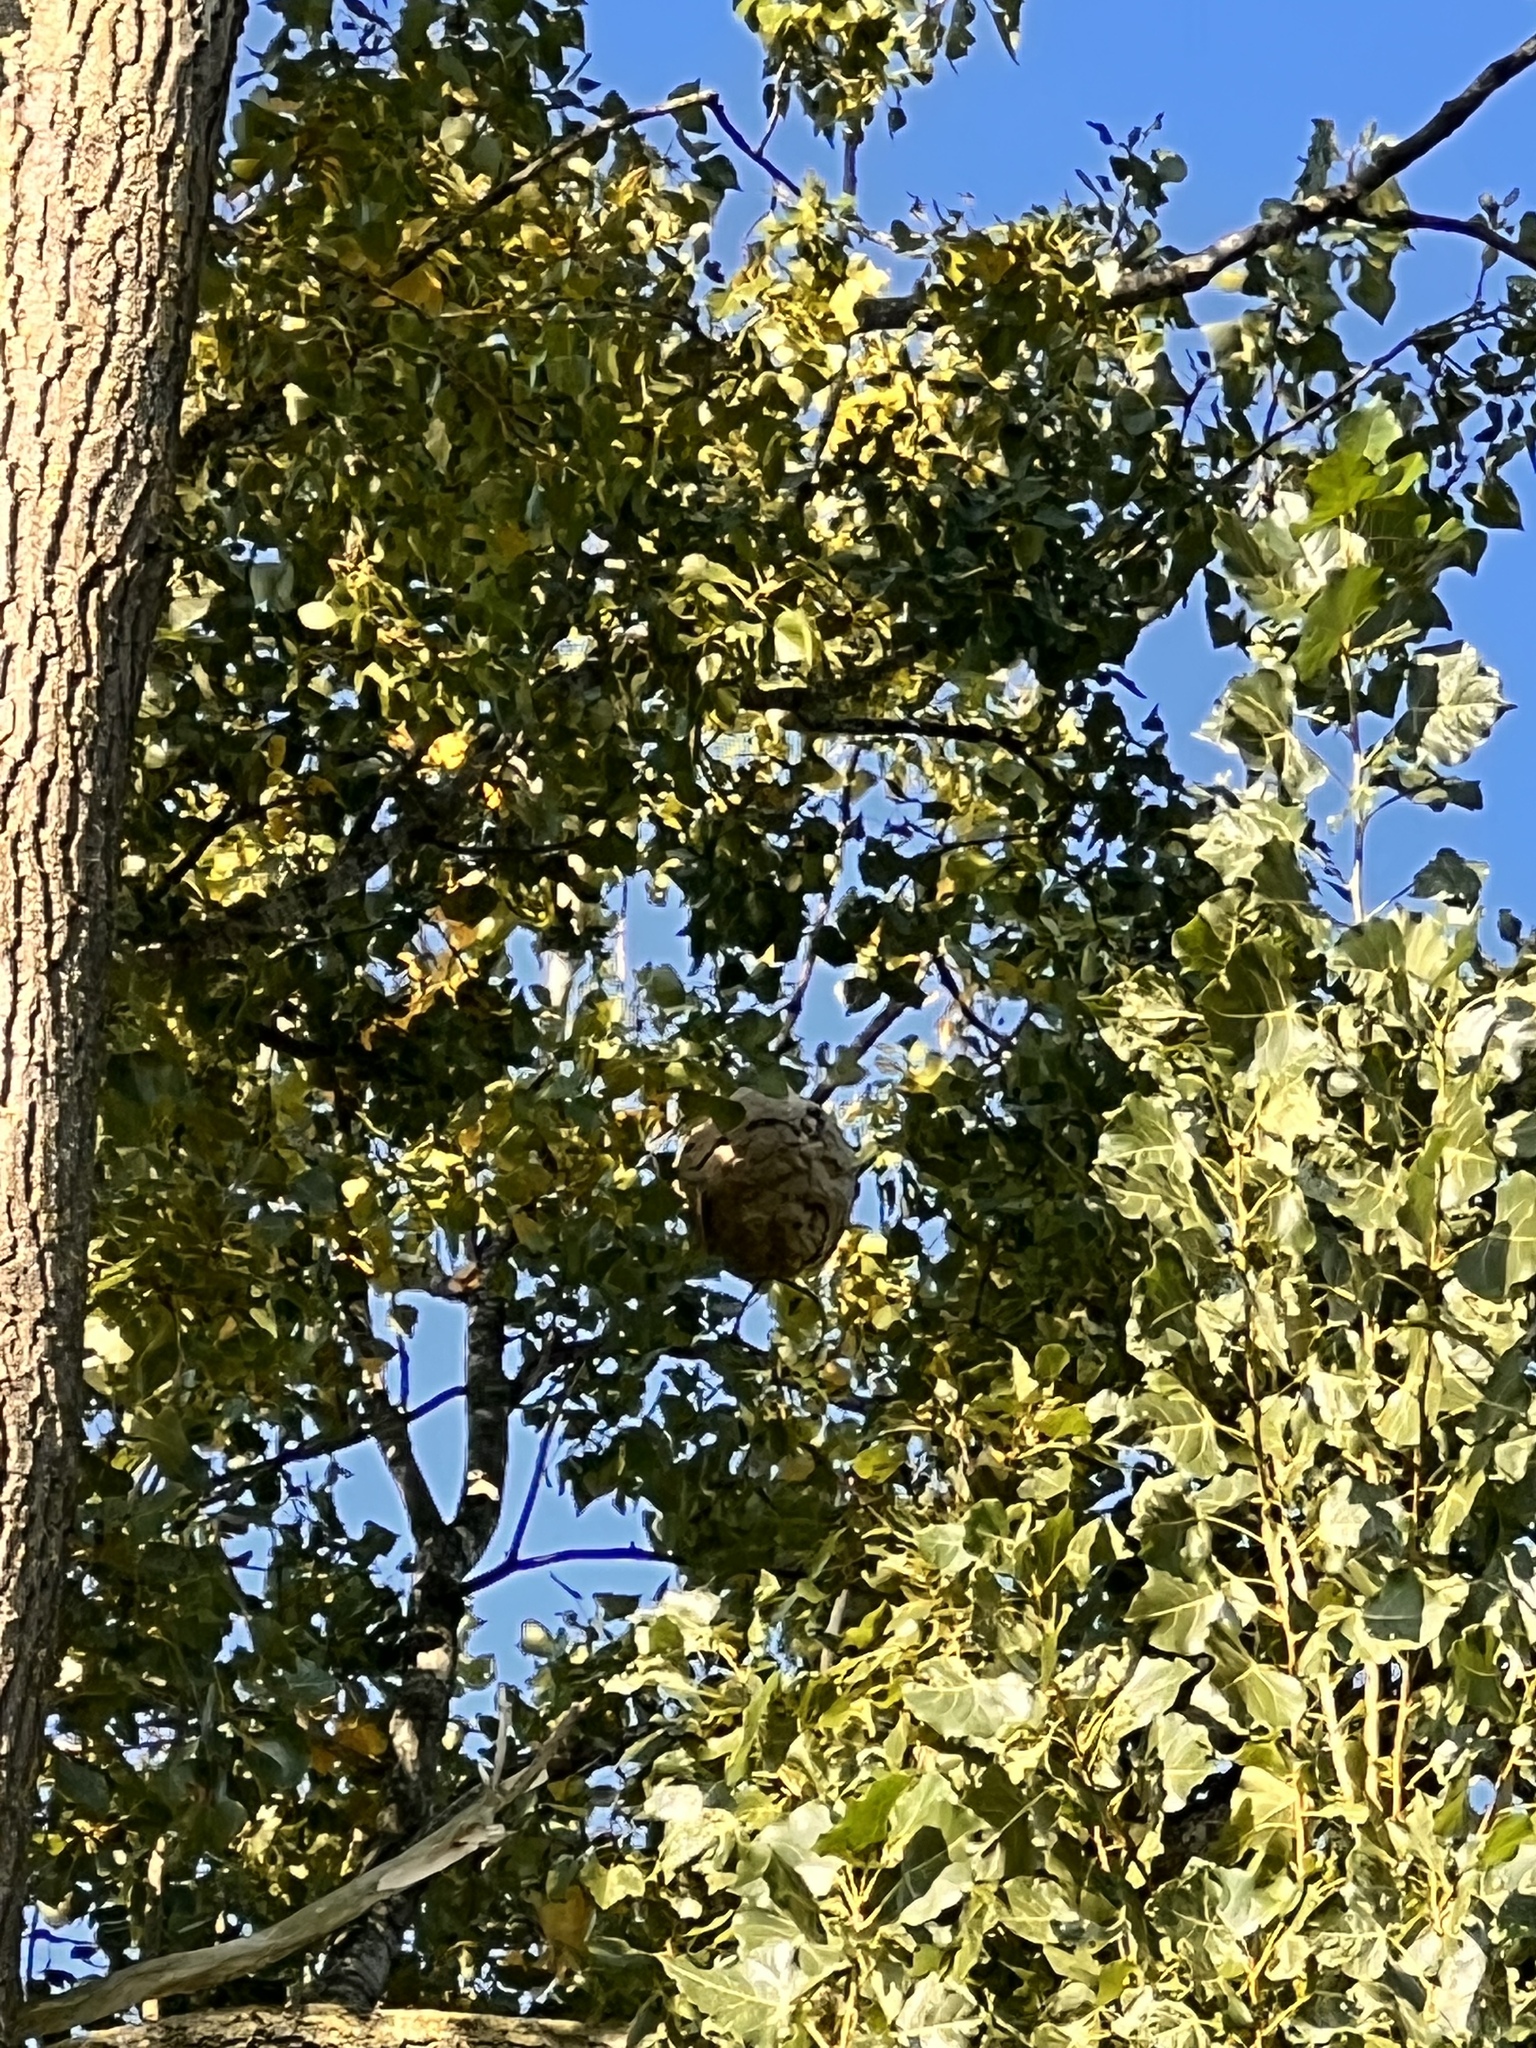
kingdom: Animalia
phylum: Arthropoda
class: Insecta
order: Hymenoptera
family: Vespidae
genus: Vespa
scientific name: Vespa velutina
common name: Asian hornet
